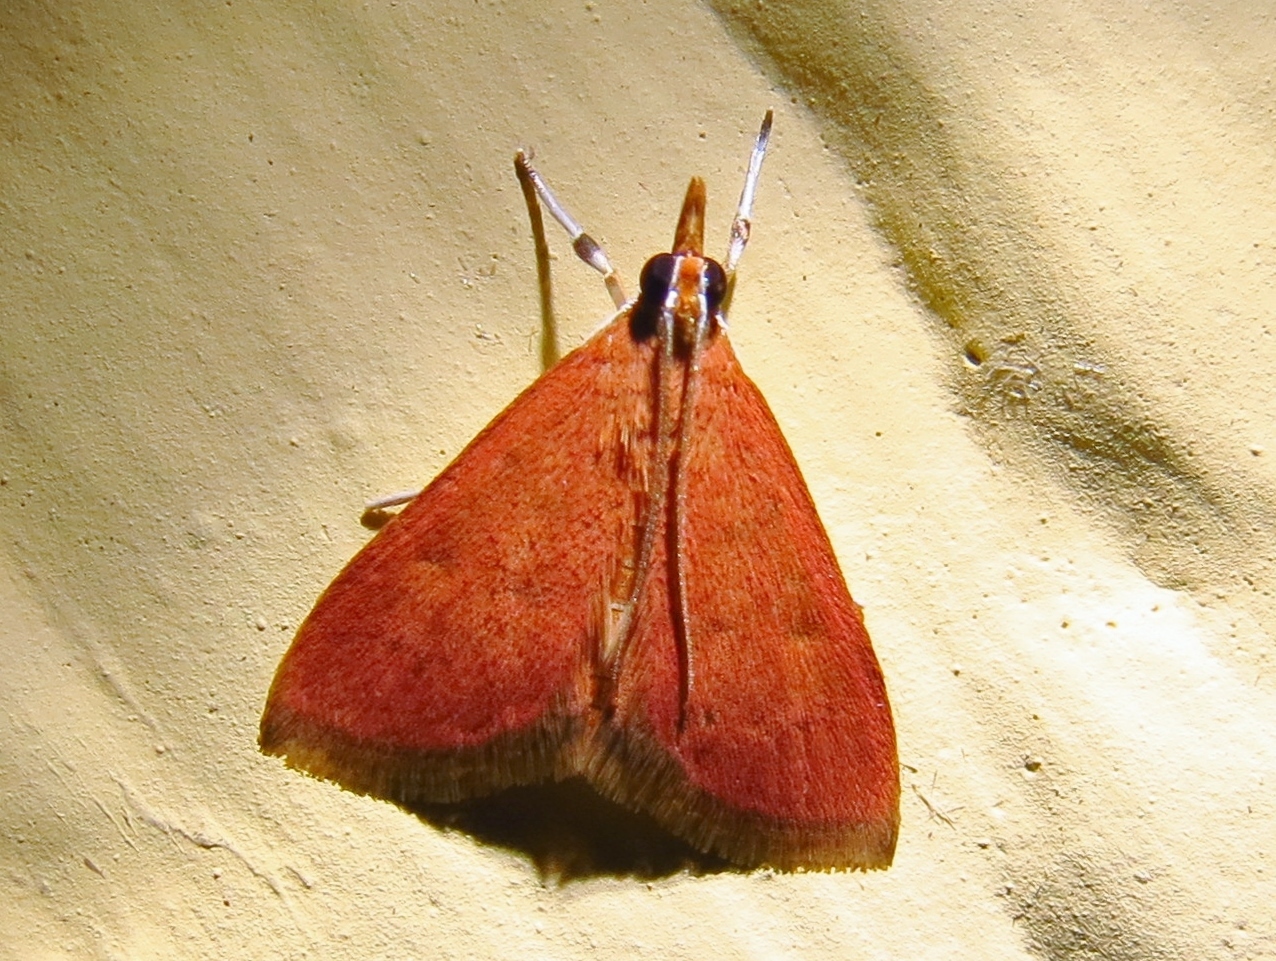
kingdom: Animalia
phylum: Arthropoda
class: Insecta
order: Lepidoptera
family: Crambidae
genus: Pyrausta
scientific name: Pyrausta inornatalis
